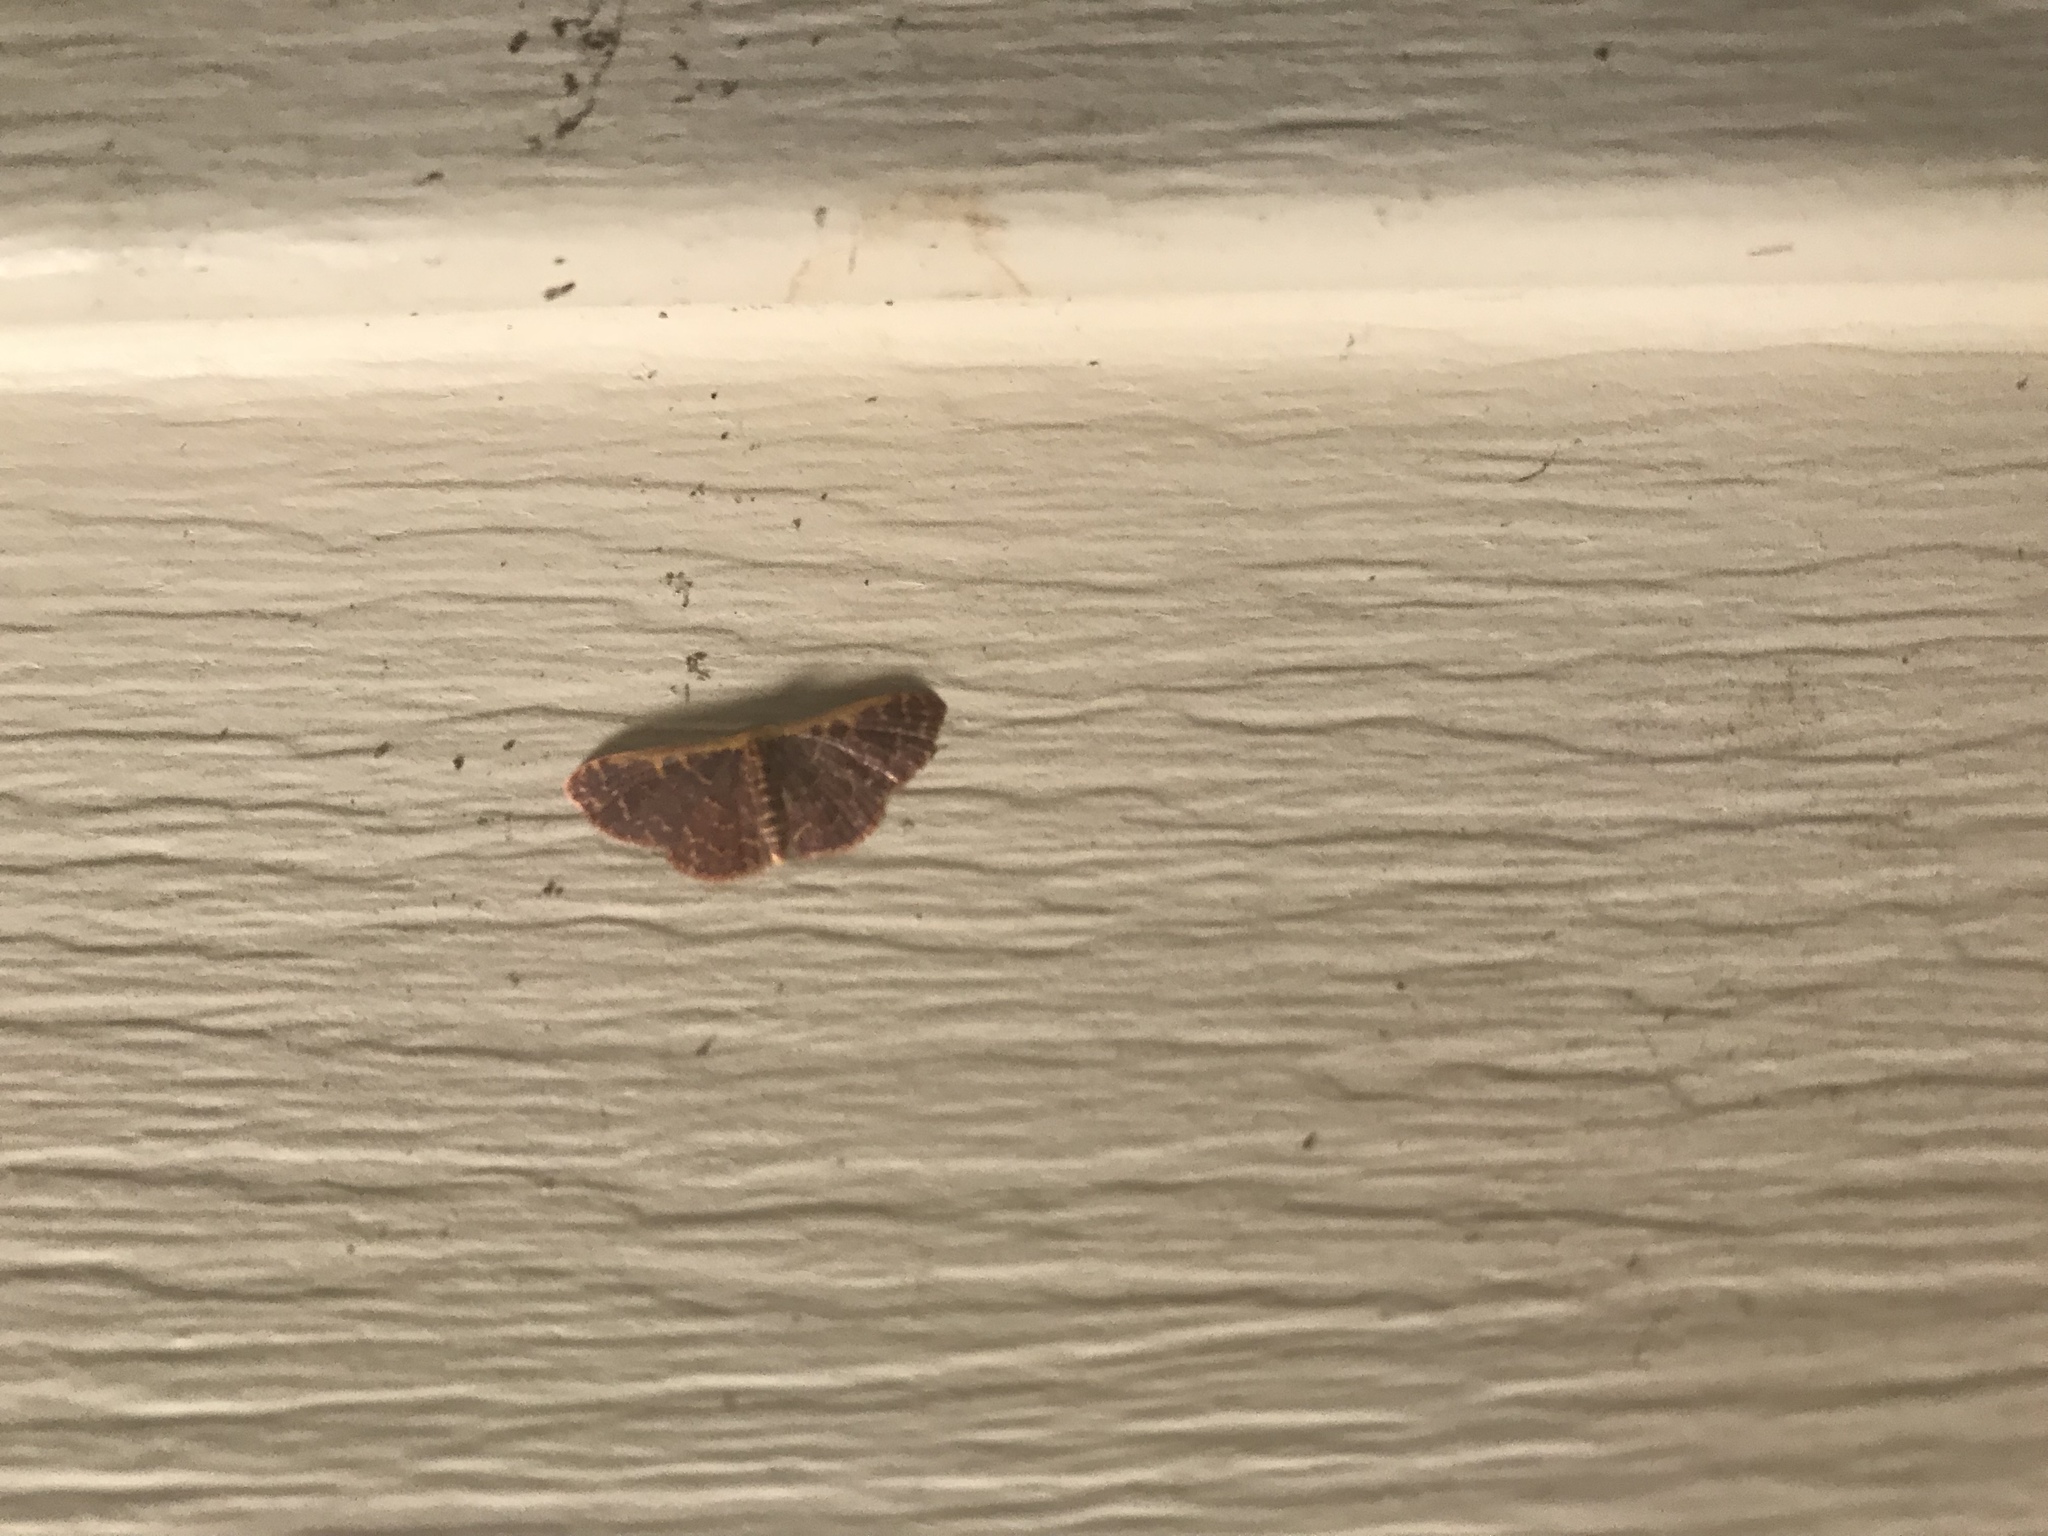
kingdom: Animalia
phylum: Arthropoda
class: Insecta
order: Lepidoptera
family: Geometridae
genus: Leptostales
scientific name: Leptostales pannaria
